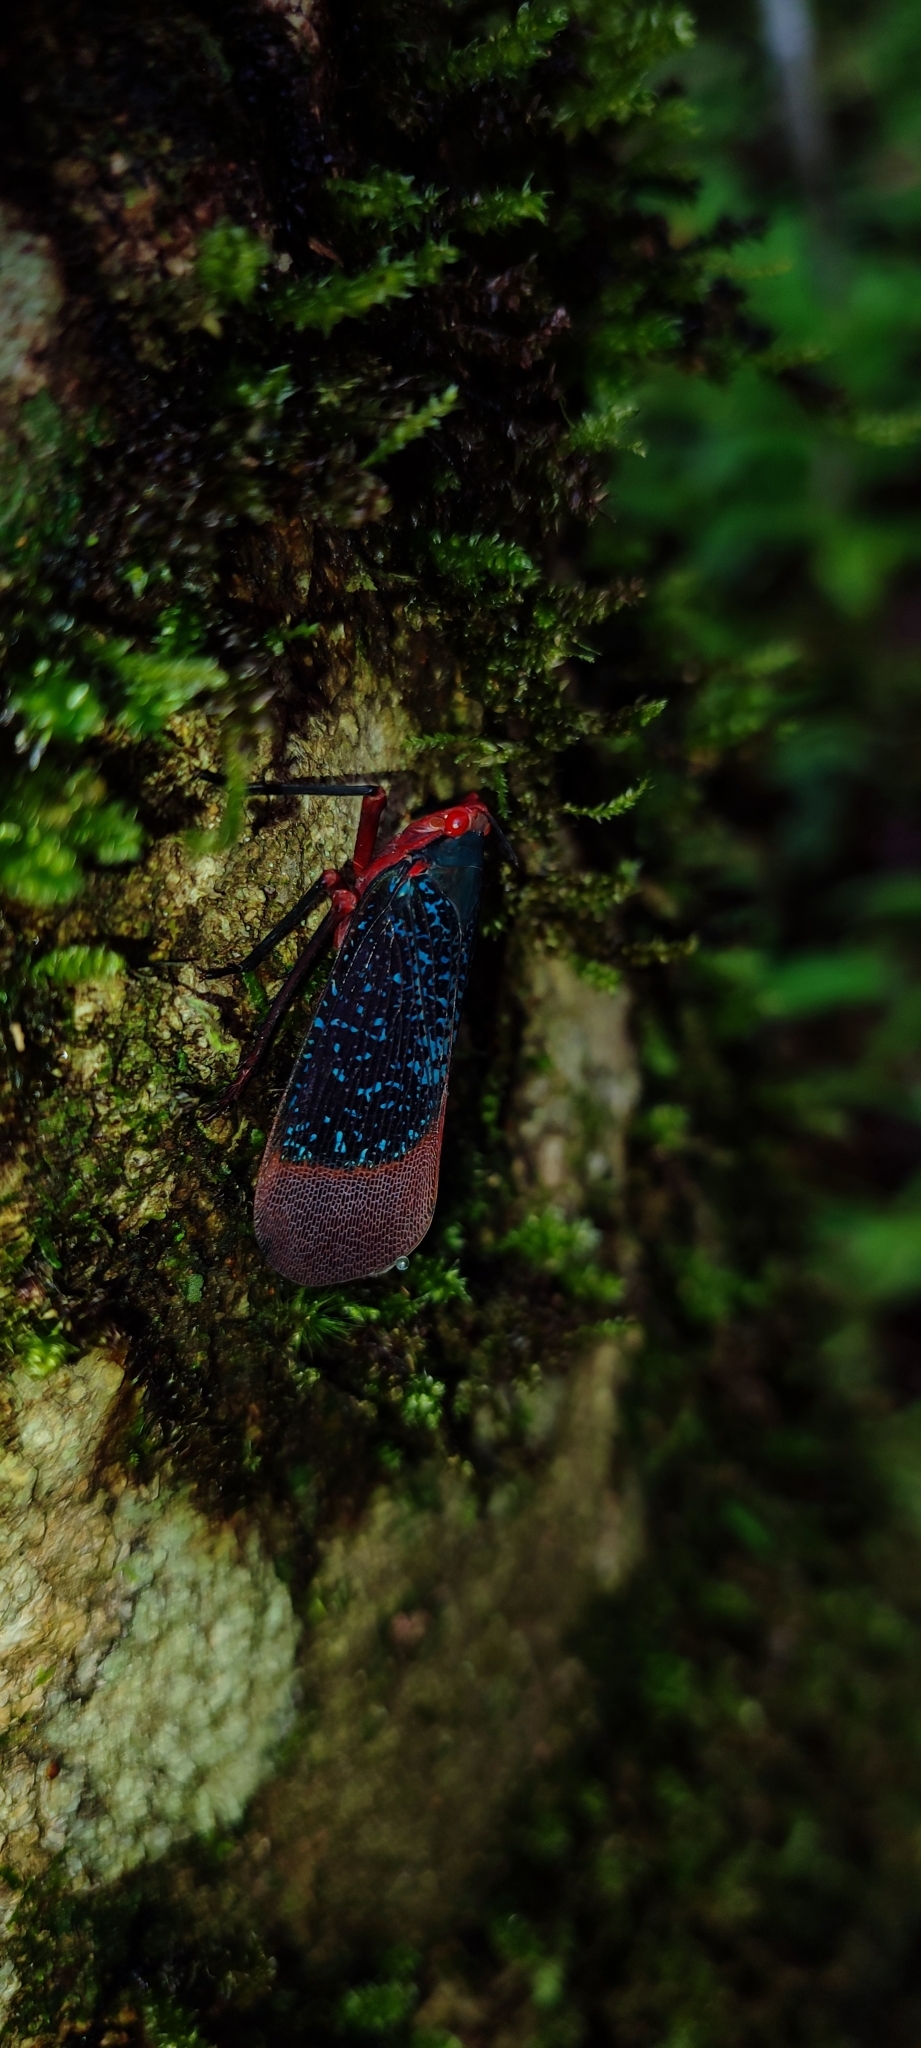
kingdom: Animalia
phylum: Arthropoda
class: Insecta
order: Hemiptera
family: Fulgoridae
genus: Kalidasa
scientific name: Kalidasa lanata
